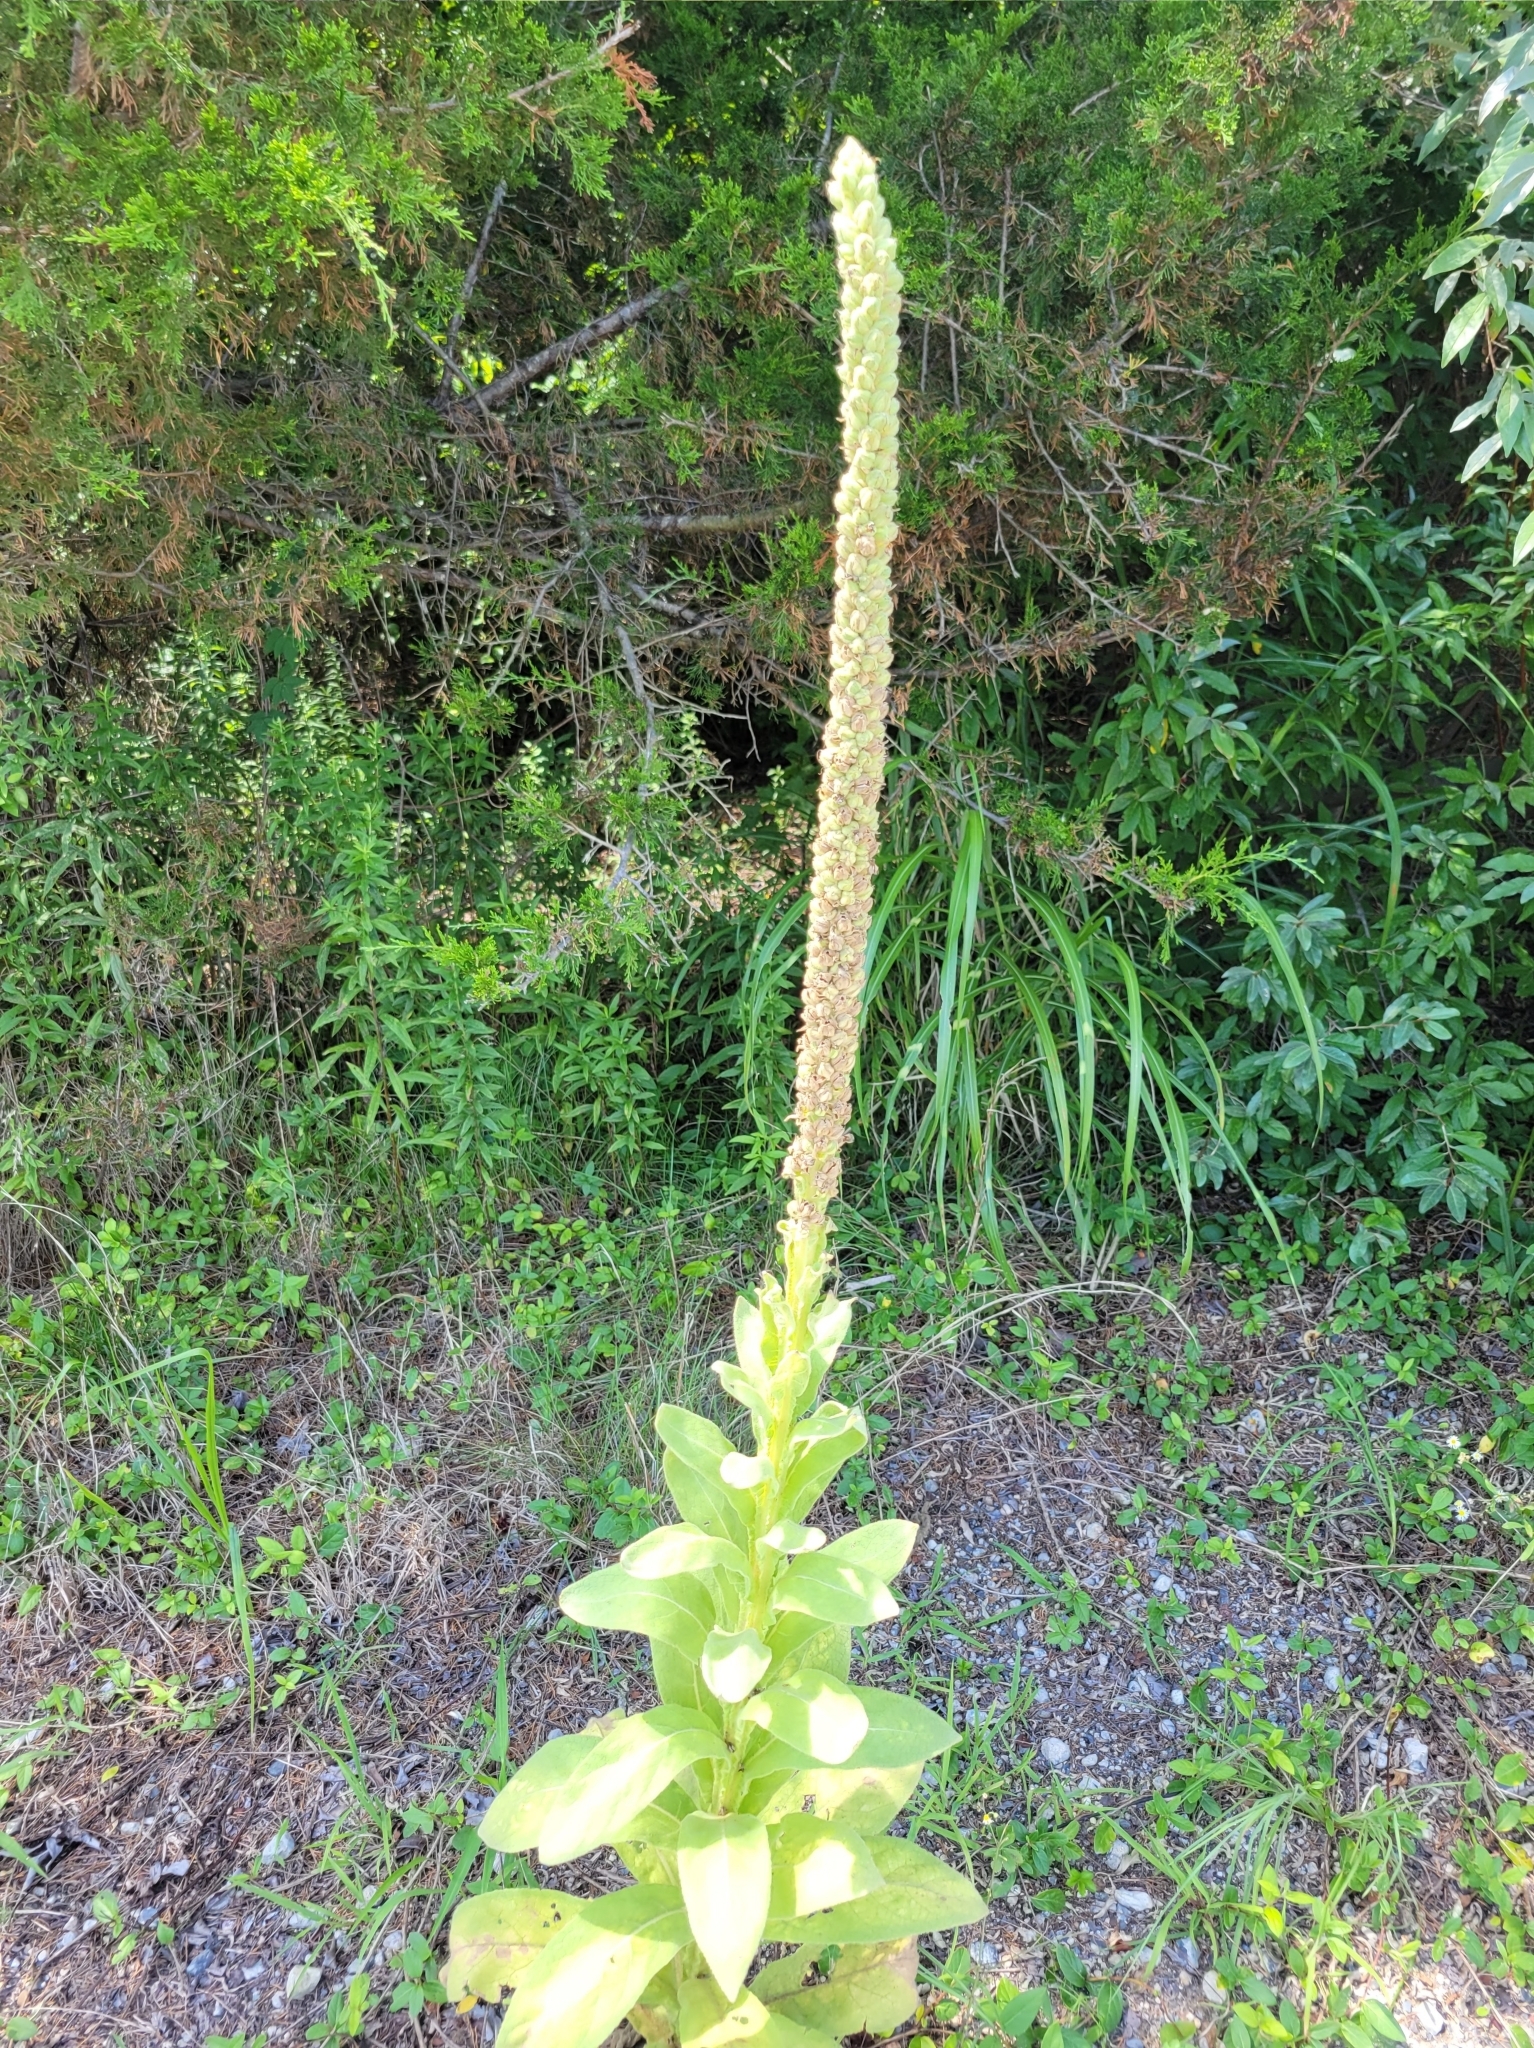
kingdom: Plantae
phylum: Tracheophyta
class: Magnoliopsida
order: Lamiales
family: Scrophulariaceae
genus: Verbascum
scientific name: Verbascum thapsus
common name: Common mullein
